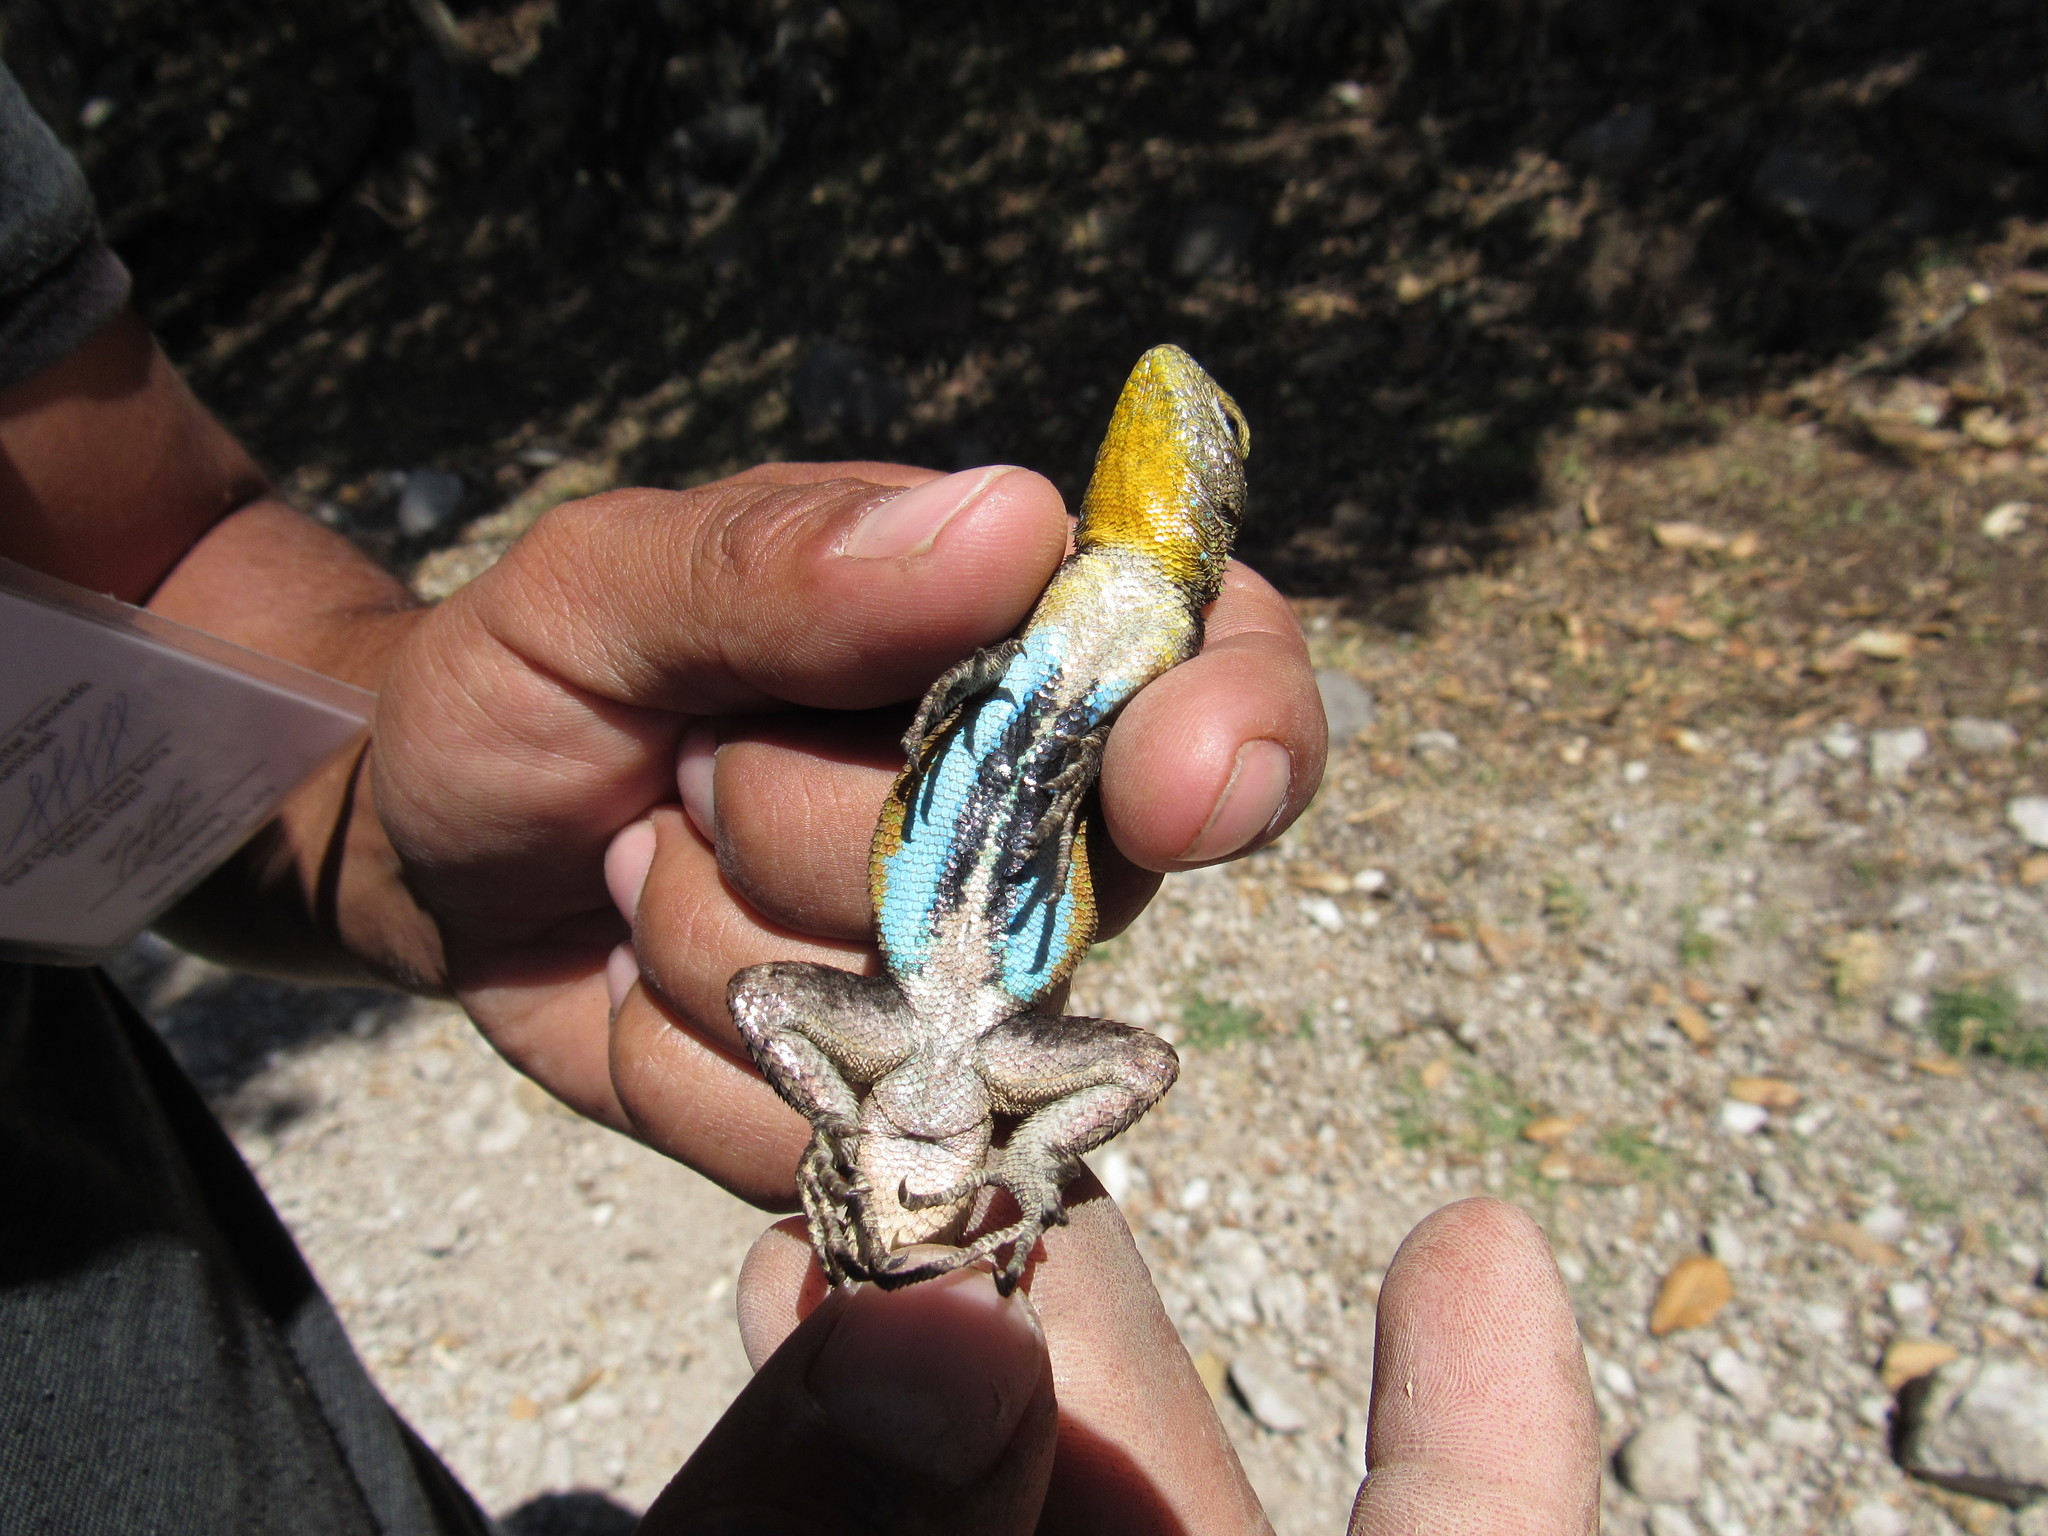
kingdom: Animalia
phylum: Chordata
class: Squamata
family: Phrynosomatidae
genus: Sceloporus
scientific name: Sceloporus grammicus
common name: Mesquite lizard
